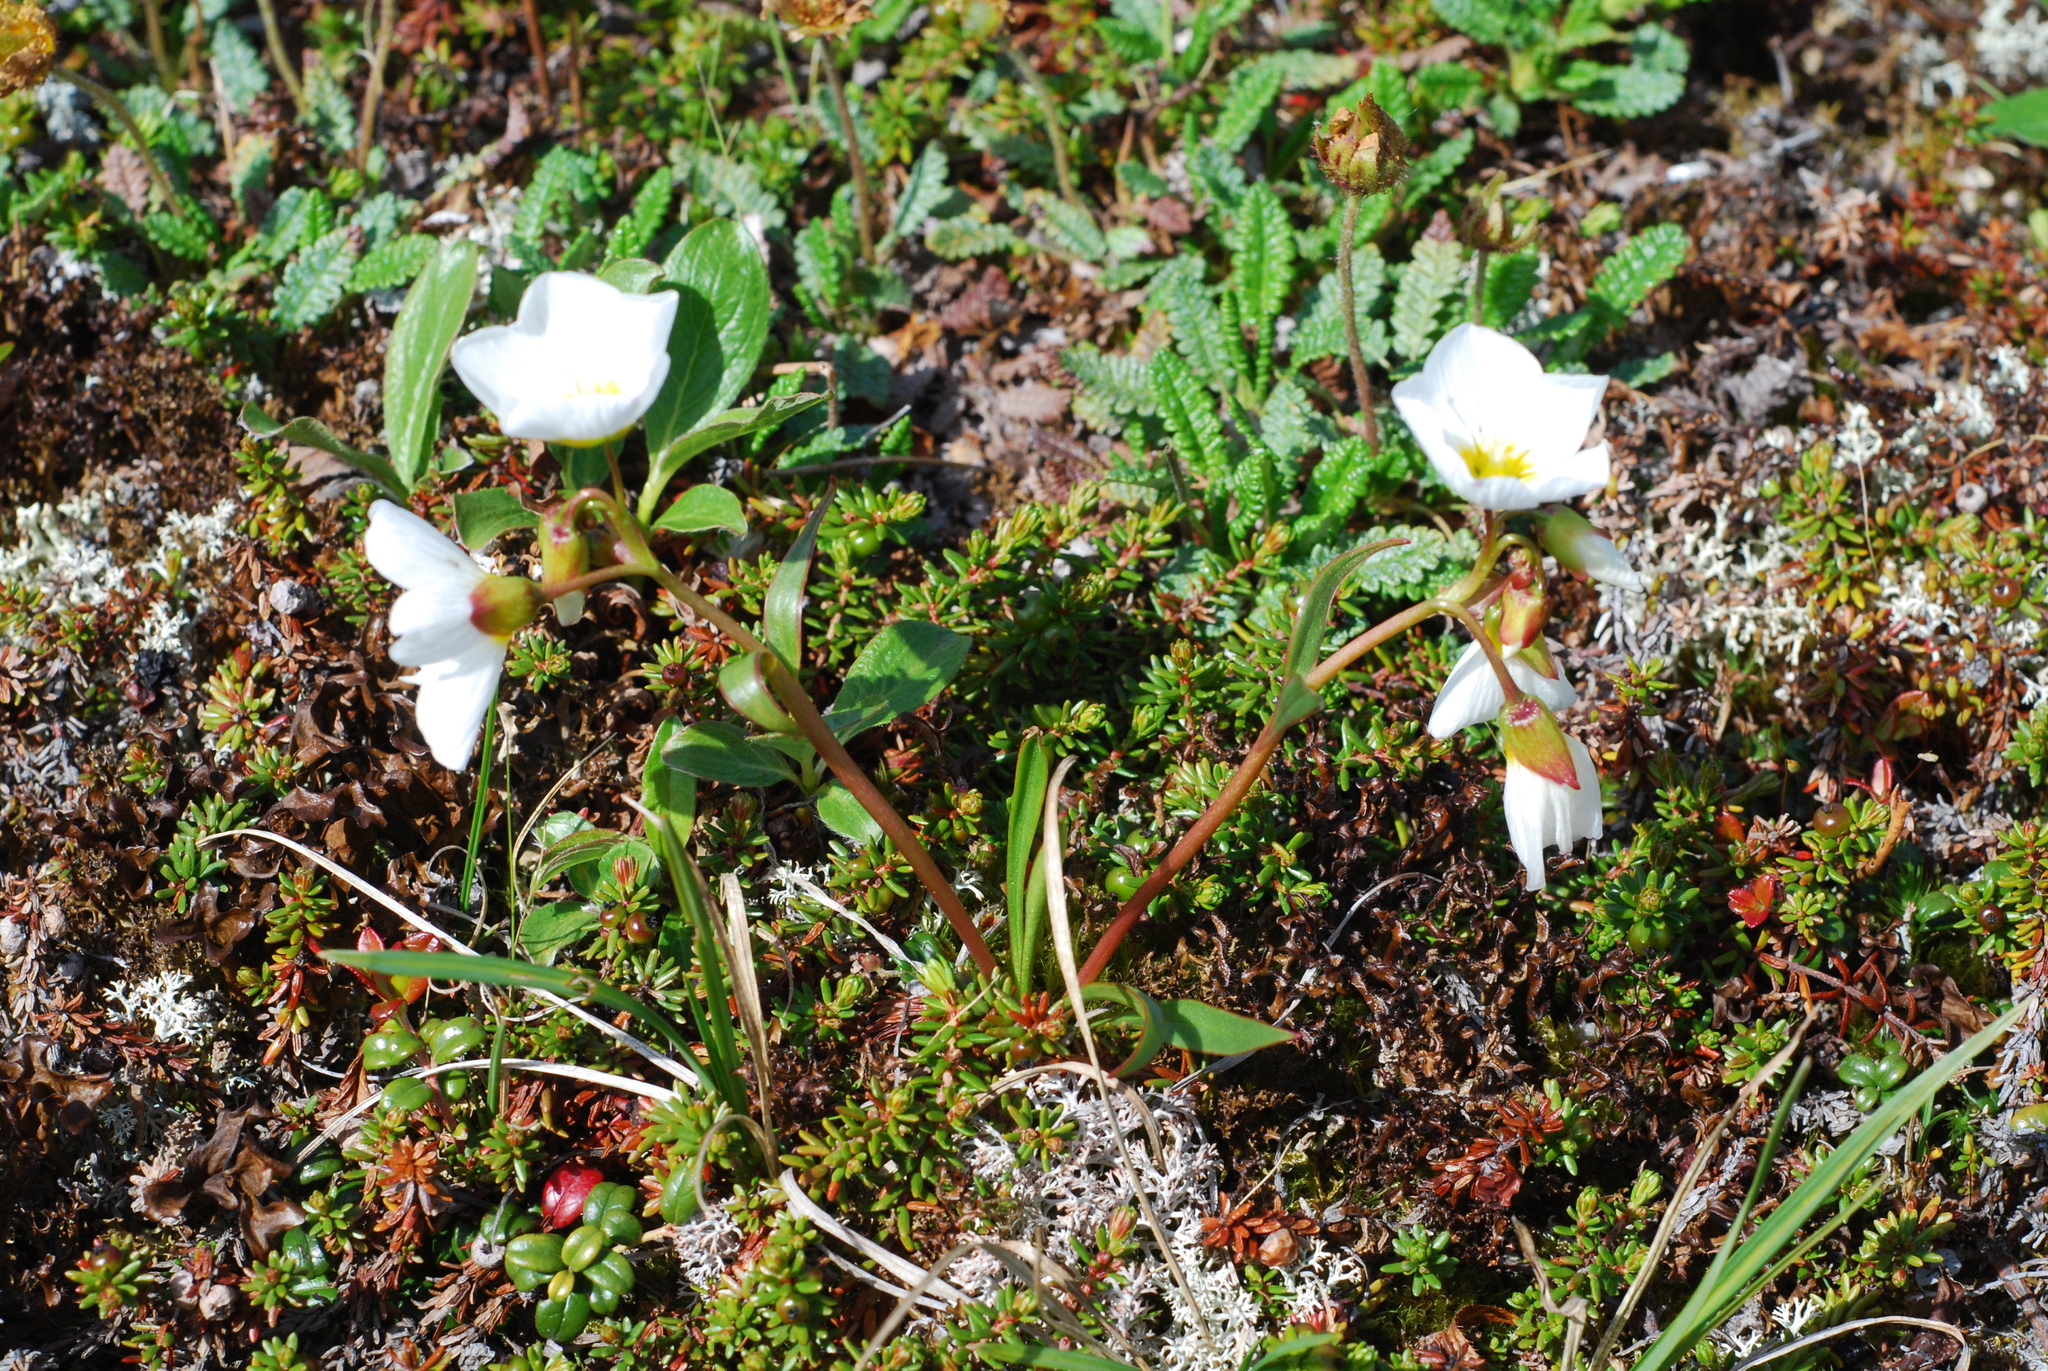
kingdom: Plantae
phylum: Tracheophyta
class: Magnoliopsida
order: Caryophyllales
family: Montiaceae
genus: Claytonia
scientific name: Claytonia acutifolia
